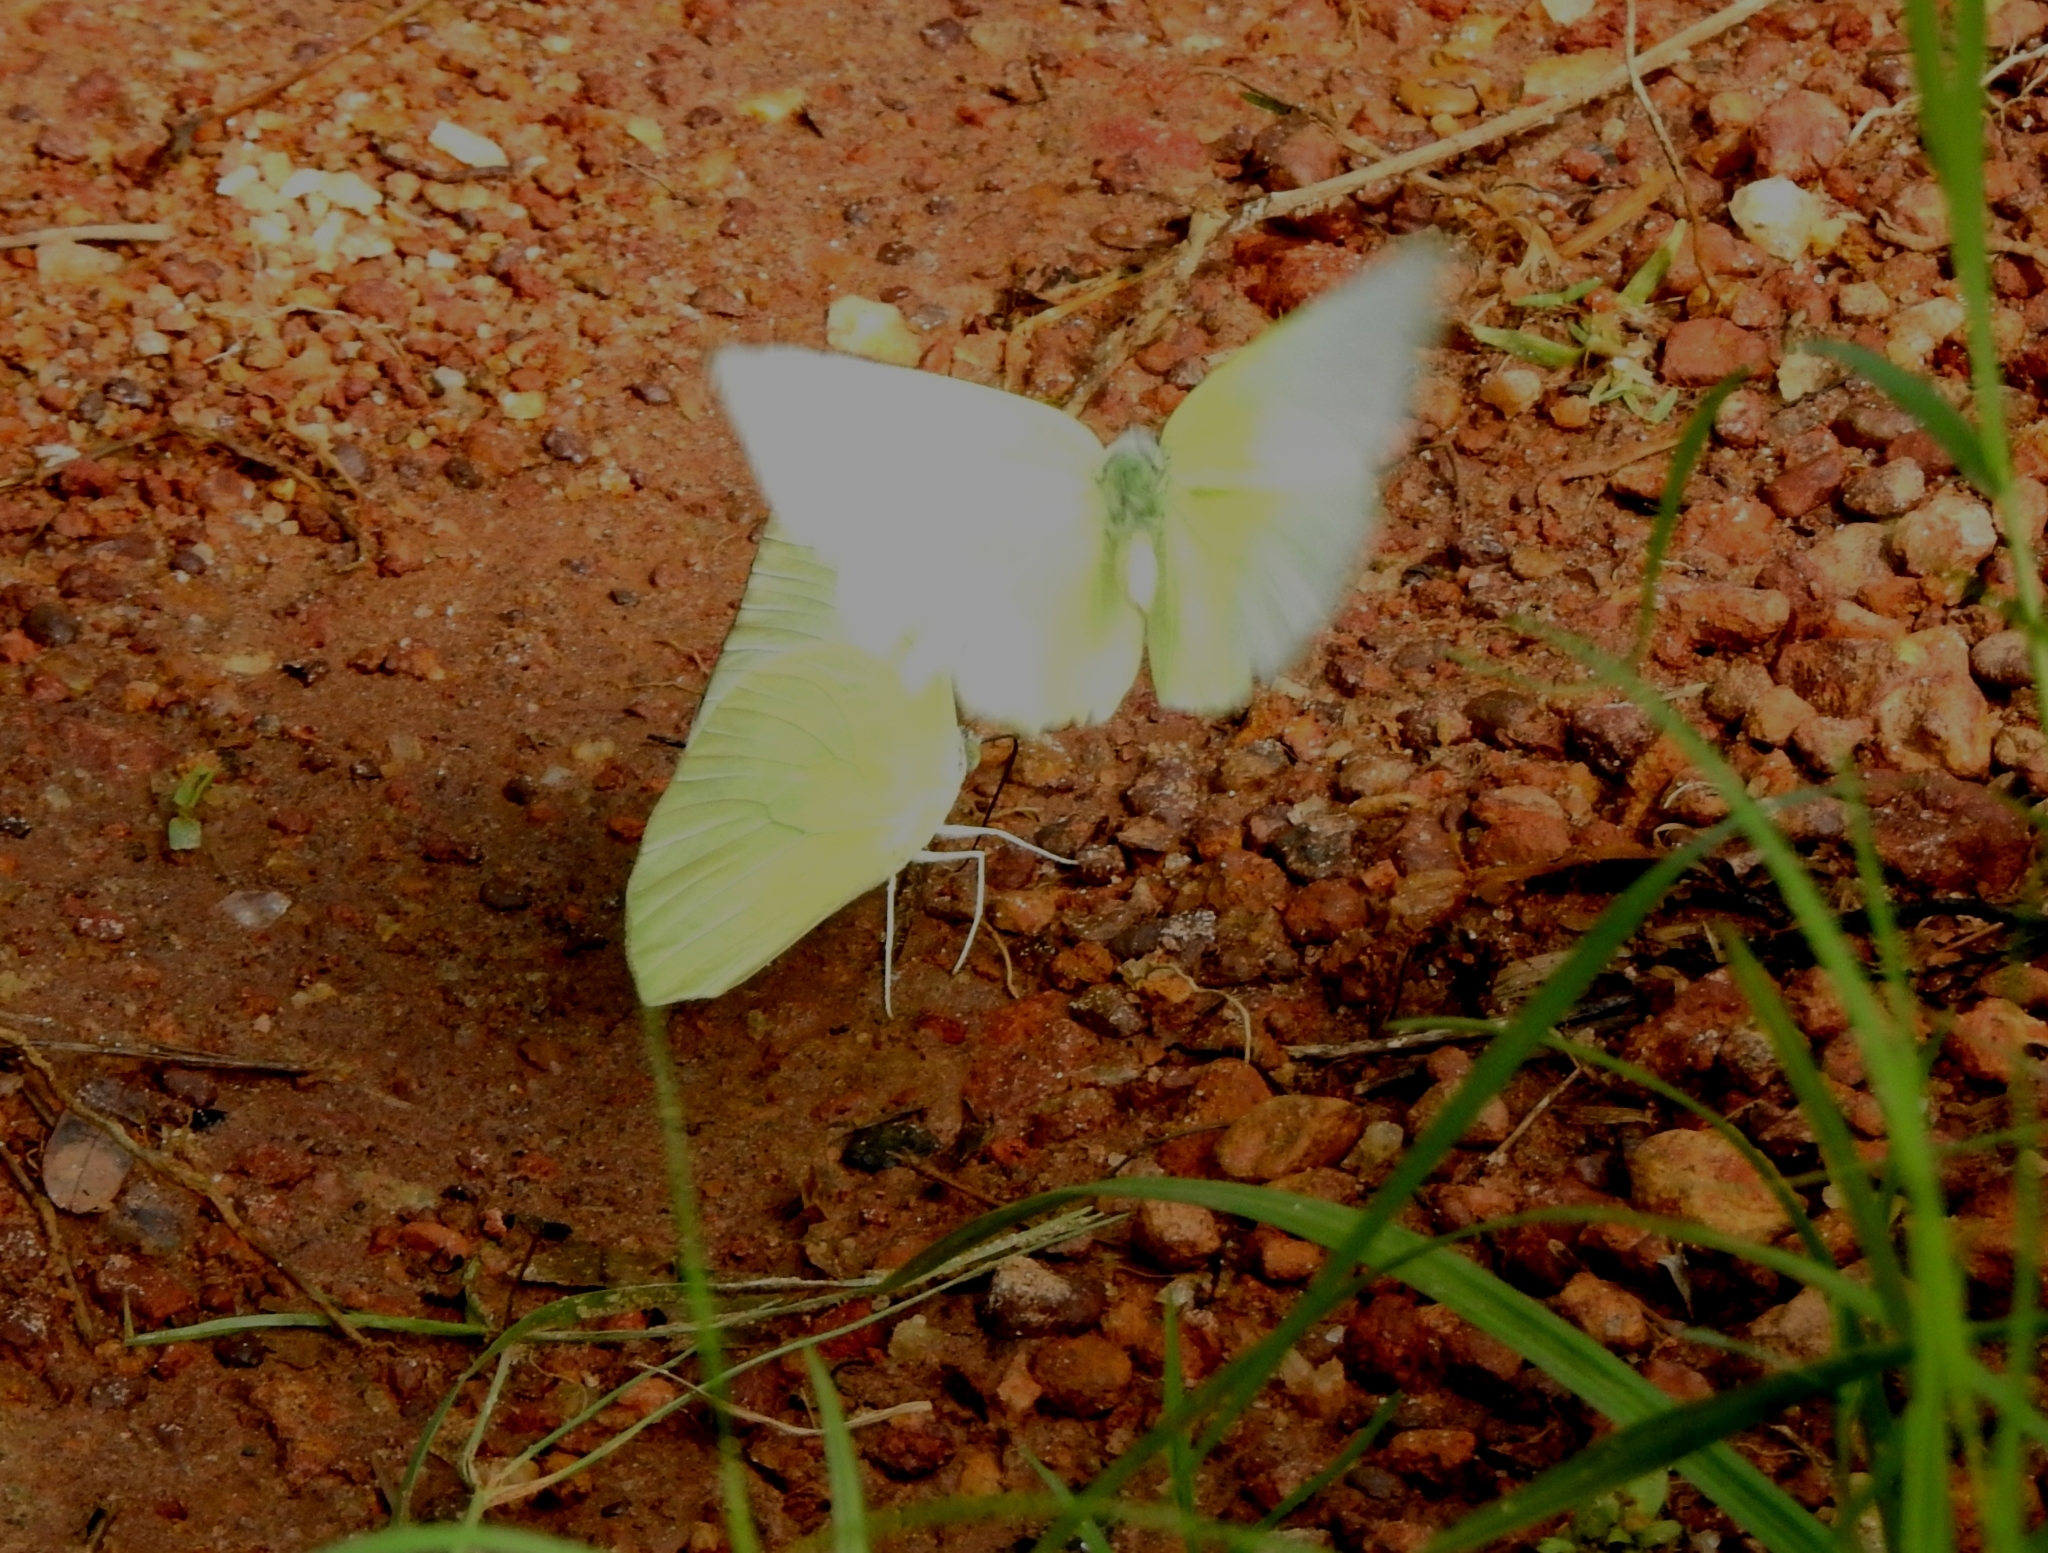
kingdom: Animalia
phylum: Arthropoda
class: Insecta
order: Lepidoptera
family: Pieridae
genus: Catopsilia
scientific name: Catopsilia pomona
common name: Common emigrant
